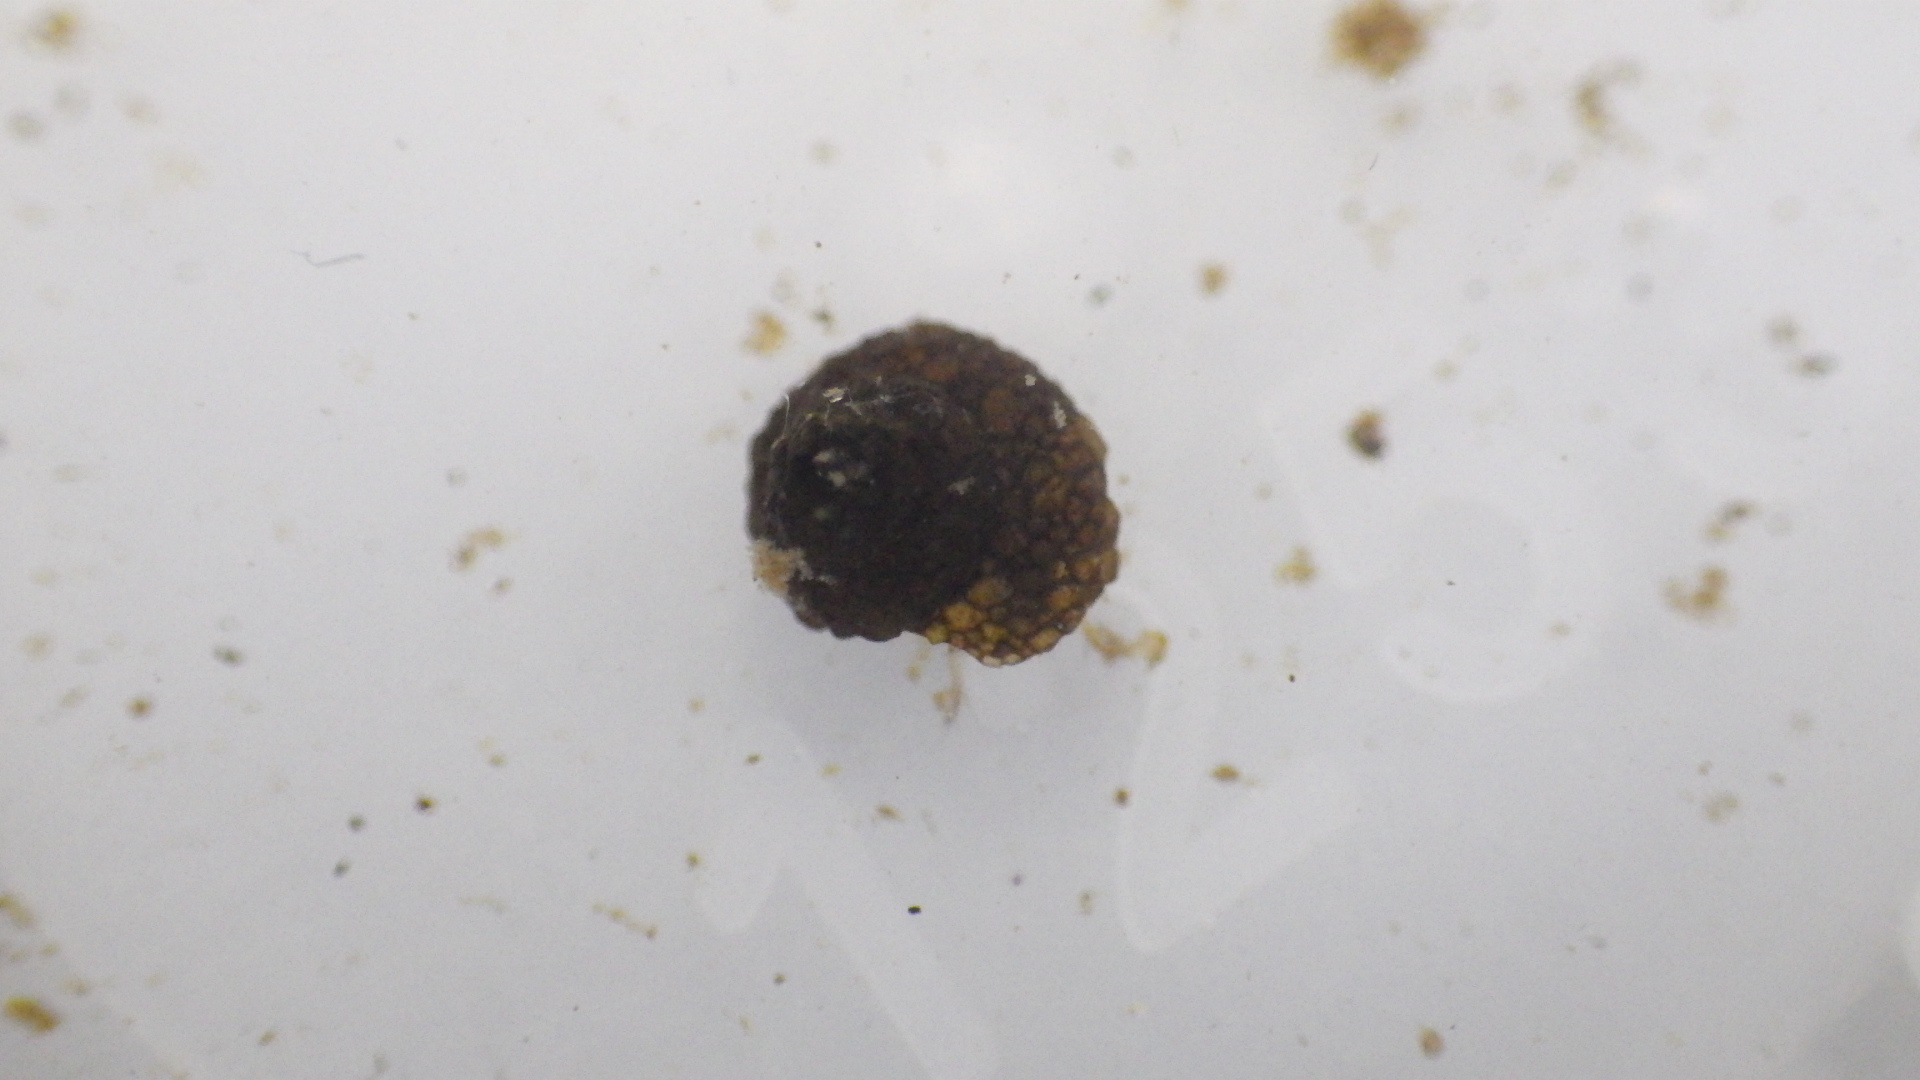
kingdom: Animalia
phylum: Arthropoda
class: Insecta
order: Trichoptera
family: Helicopsychidae
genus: Helicopsyche
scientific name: Helicopsyche borealis
